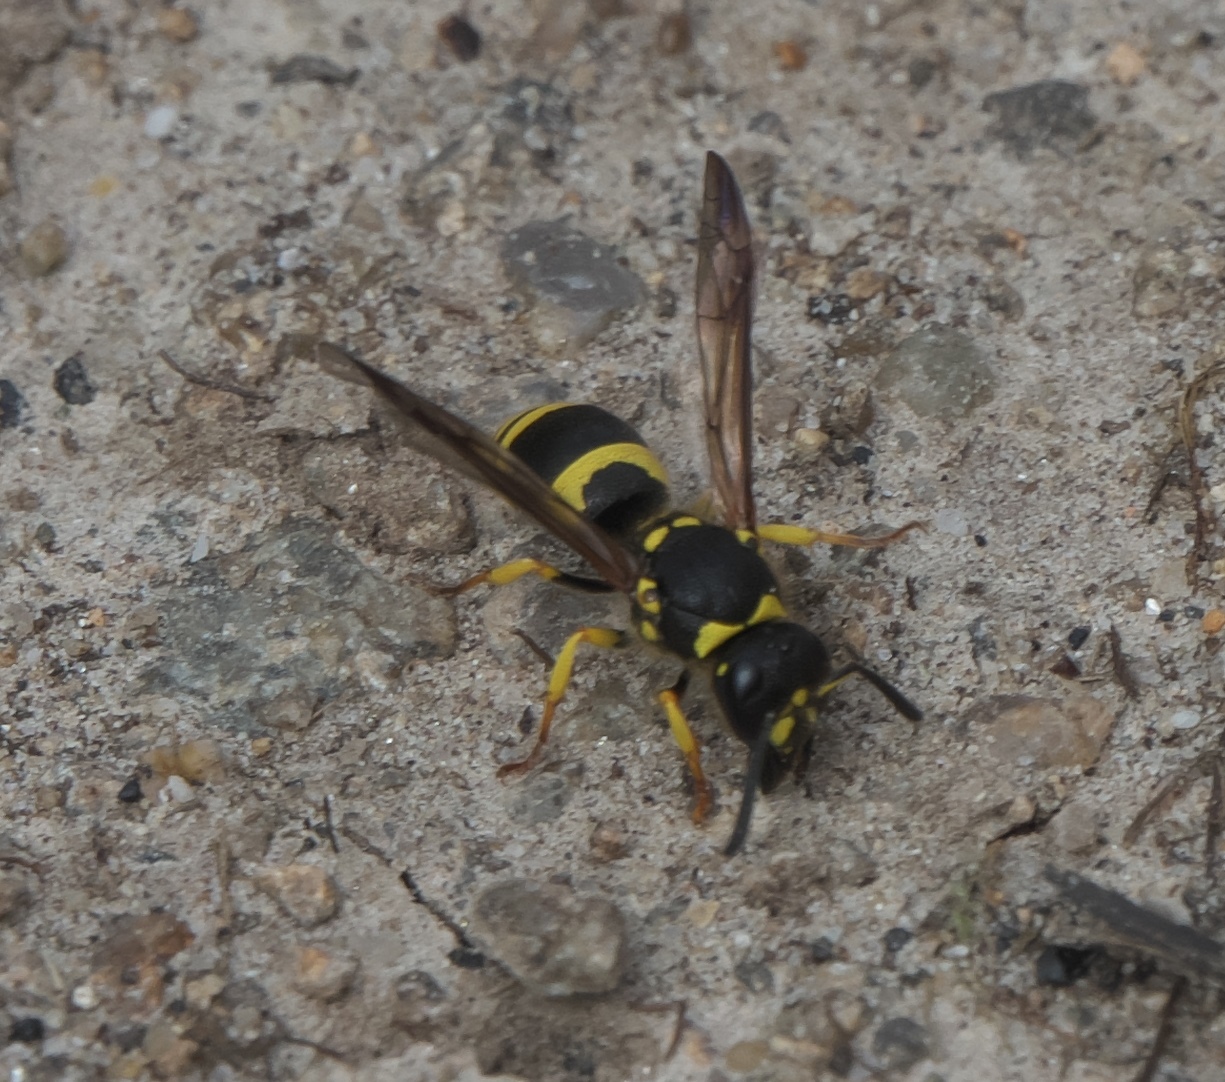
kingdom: Animalia
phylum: Arthropoda
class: Insecta
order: Hymenoptera
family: Vespidae
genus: Ancistrocerus
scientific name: Ancistrocerus gazella
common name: European tube wasp
